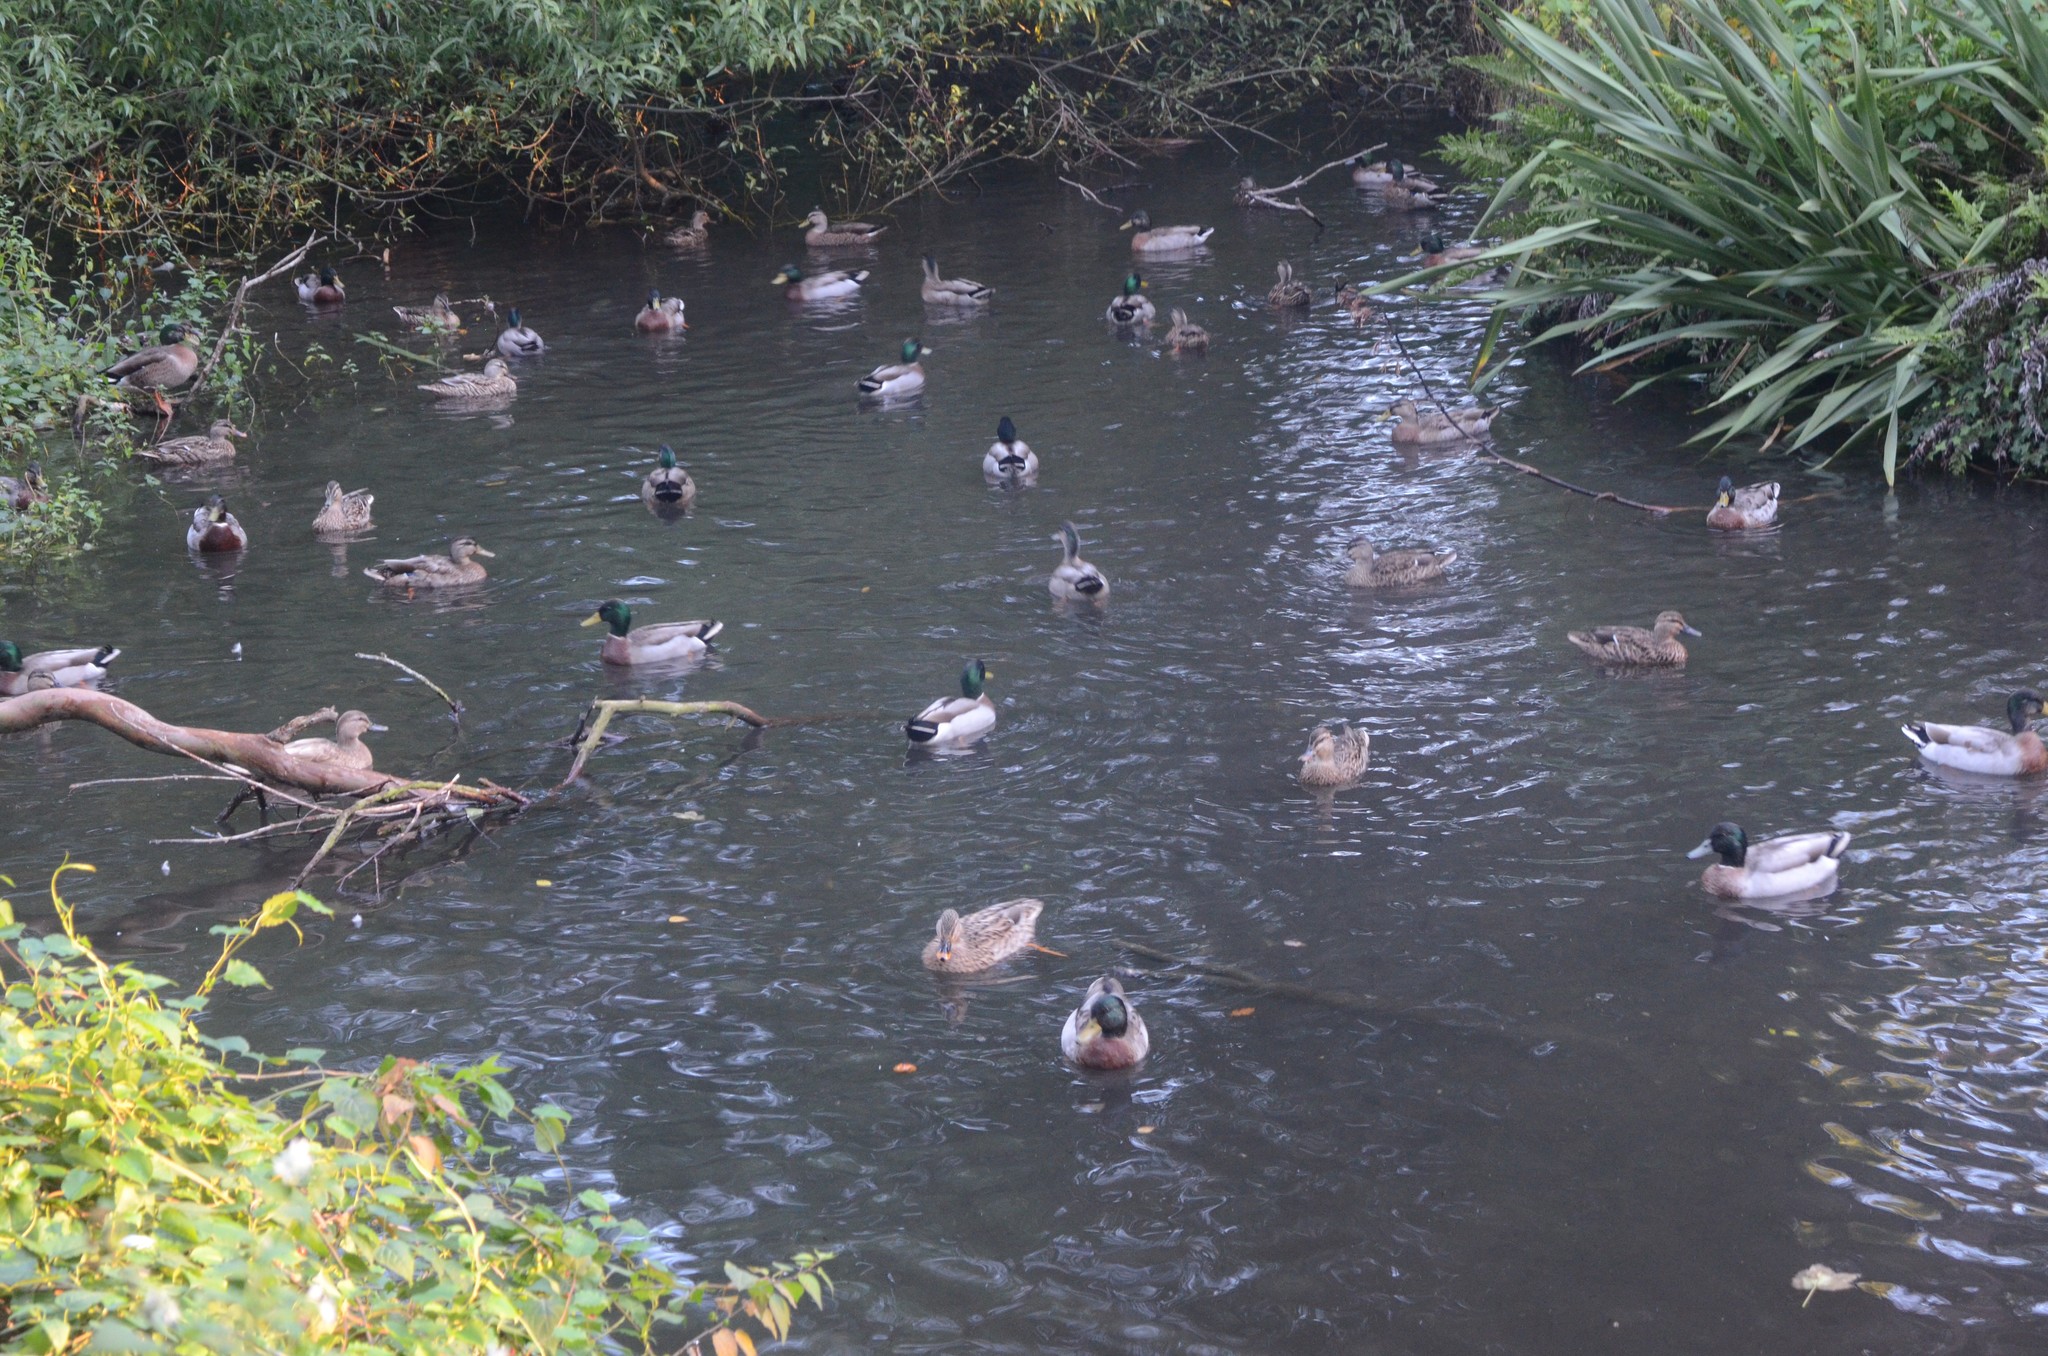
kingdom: Animalia
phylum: Chordata
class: Aves
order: Anseriformes
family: Anatidae
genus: Anas
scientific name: Anas platyrhynchos
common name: Mallard
